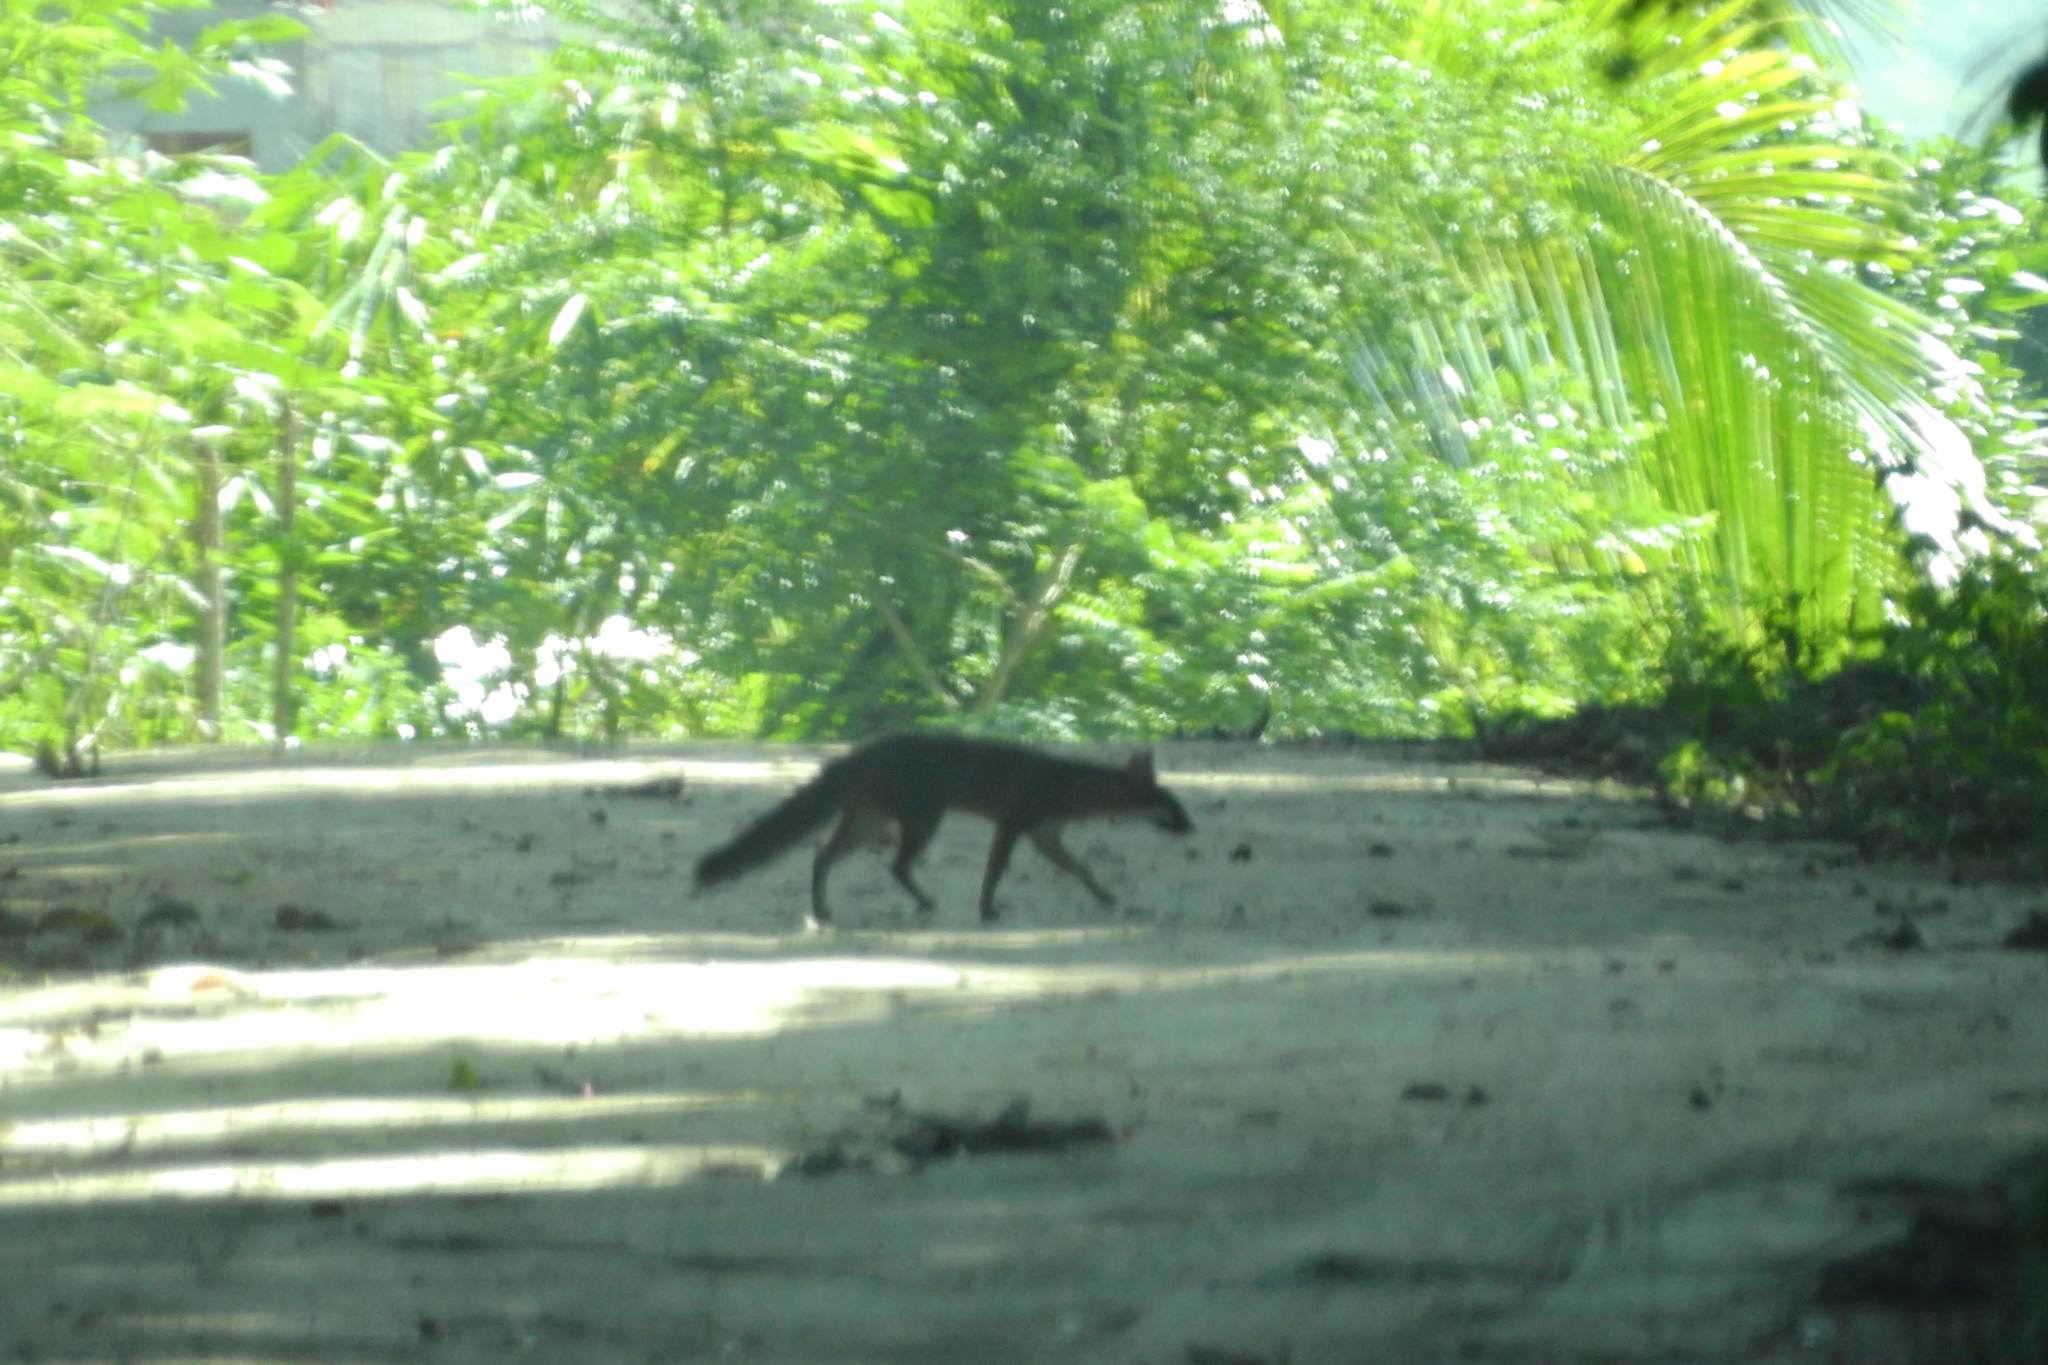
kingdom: Animalia
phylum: Chordata
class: Mammalia
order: Carnivora
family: Canidae
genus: Urocyon
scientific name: Urocyon cinereoargenteus
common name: Gray fox
